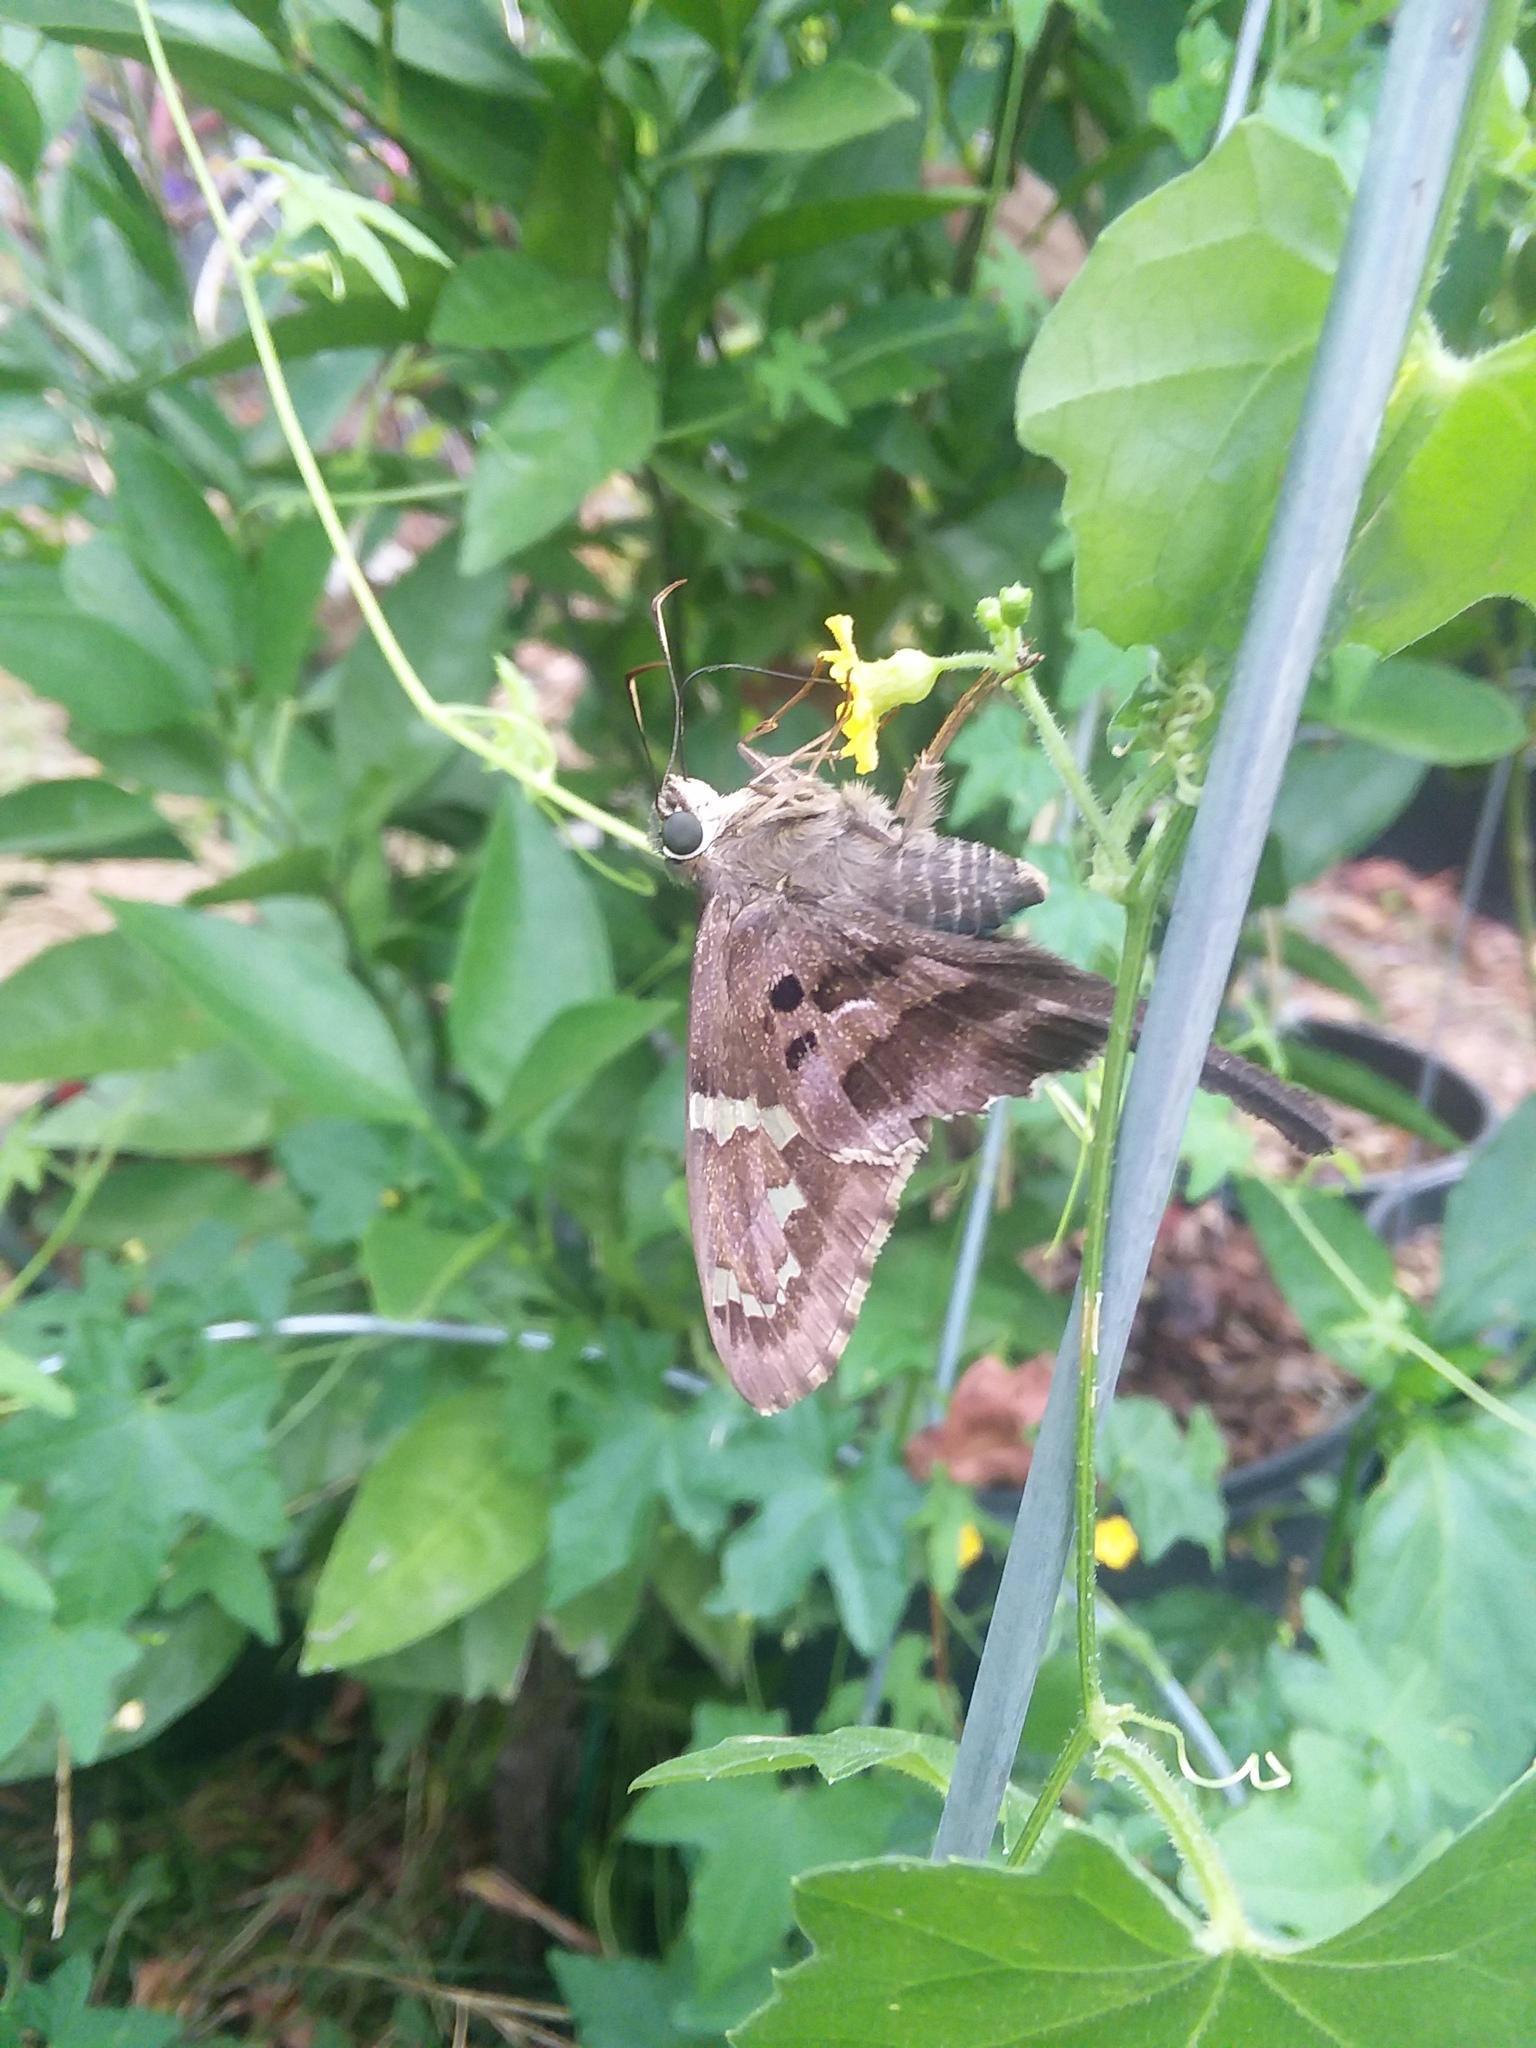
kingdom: Animalia
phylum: Arthropoda
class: Insecta
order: Lepidoptera
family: Hesperiidae
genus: Urbanus
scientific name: Urbanus proteus
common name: Long-tailed skipper
